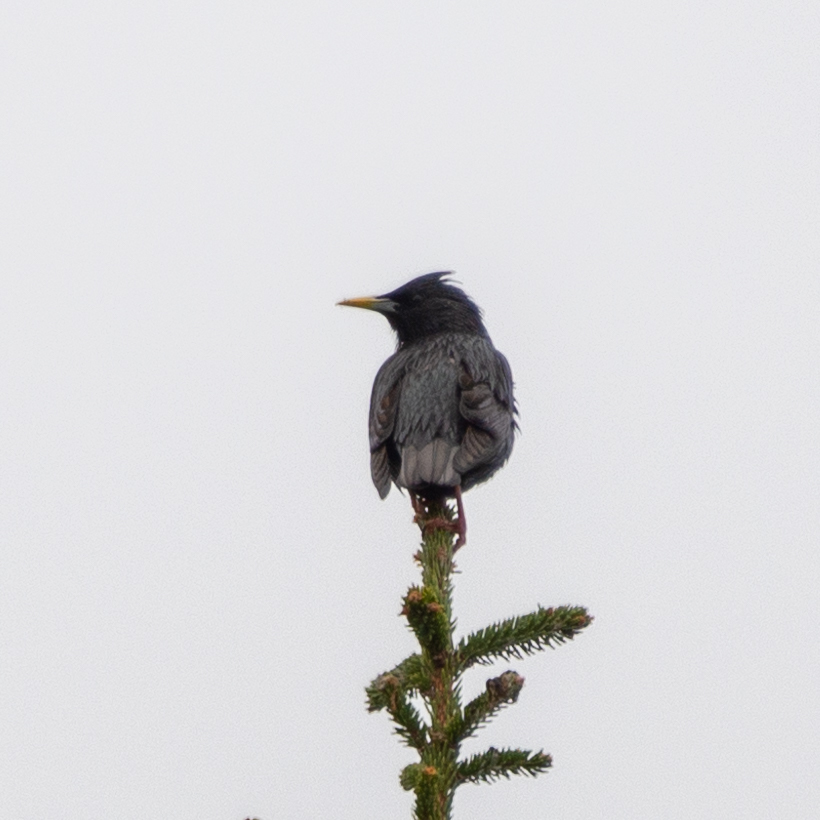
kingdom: Animalia
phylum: Chordata
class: Aves
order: Passeriformes
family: Sturnidae
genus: Sturnus
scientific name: Sturnus unicolor
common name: Spotless starling
